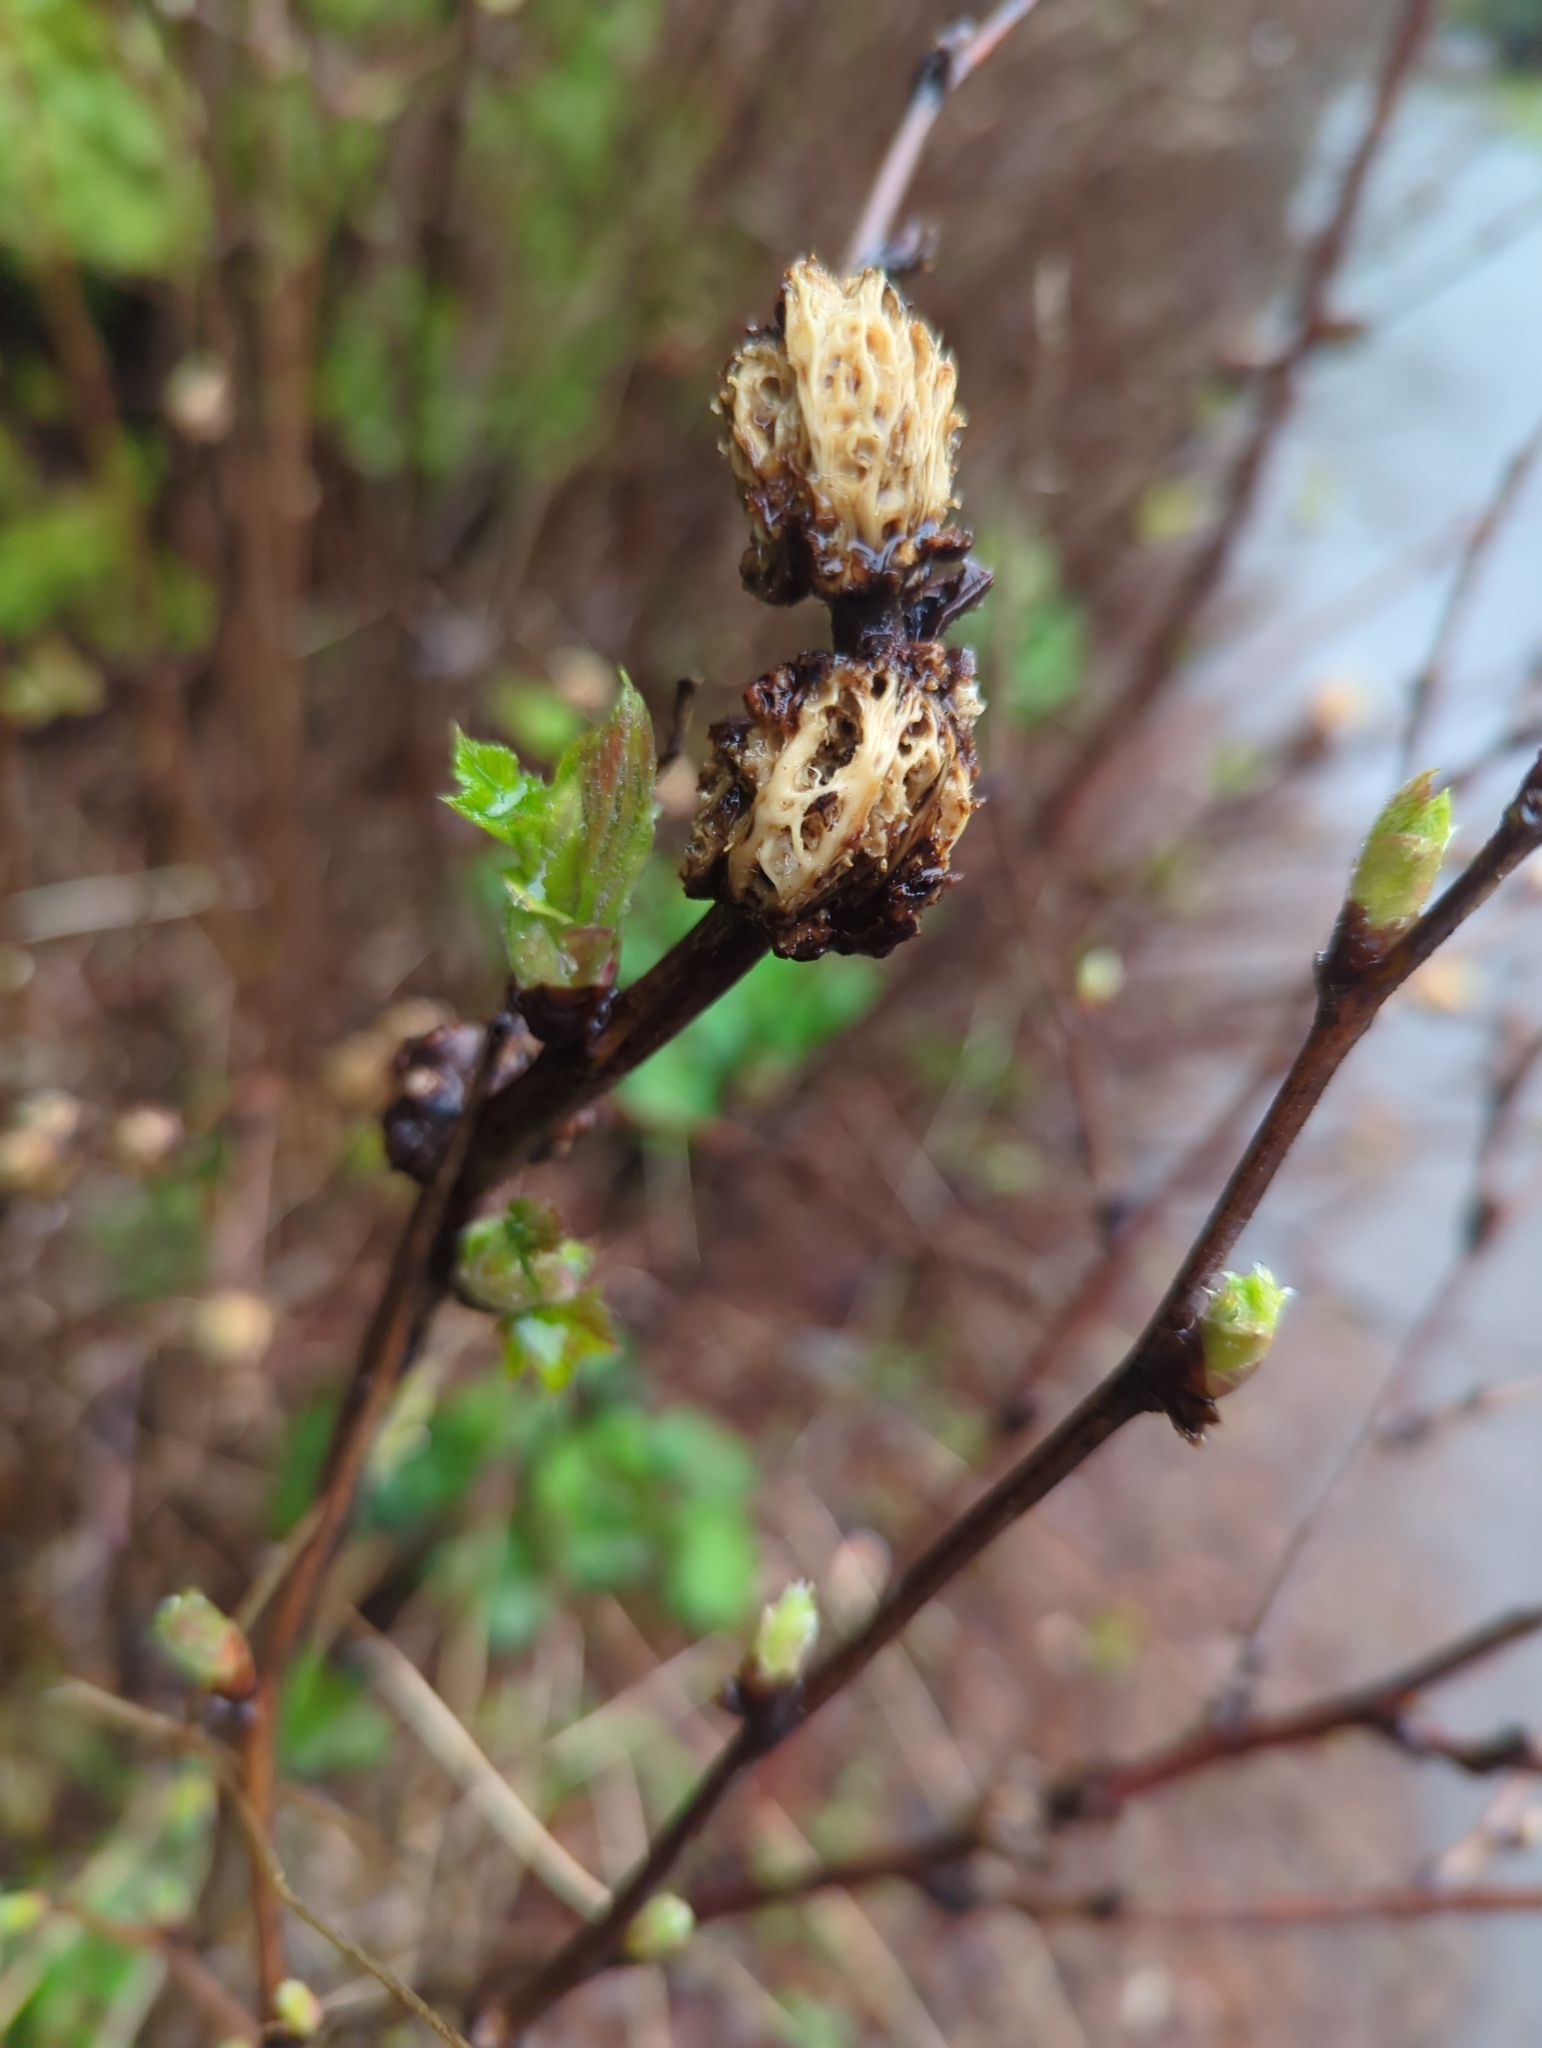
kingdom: Animalia
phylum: Arthropoda
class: Insecta
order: Hymenoptera
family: Cynipidae
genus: Diastrophus
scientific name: Diastrophus
